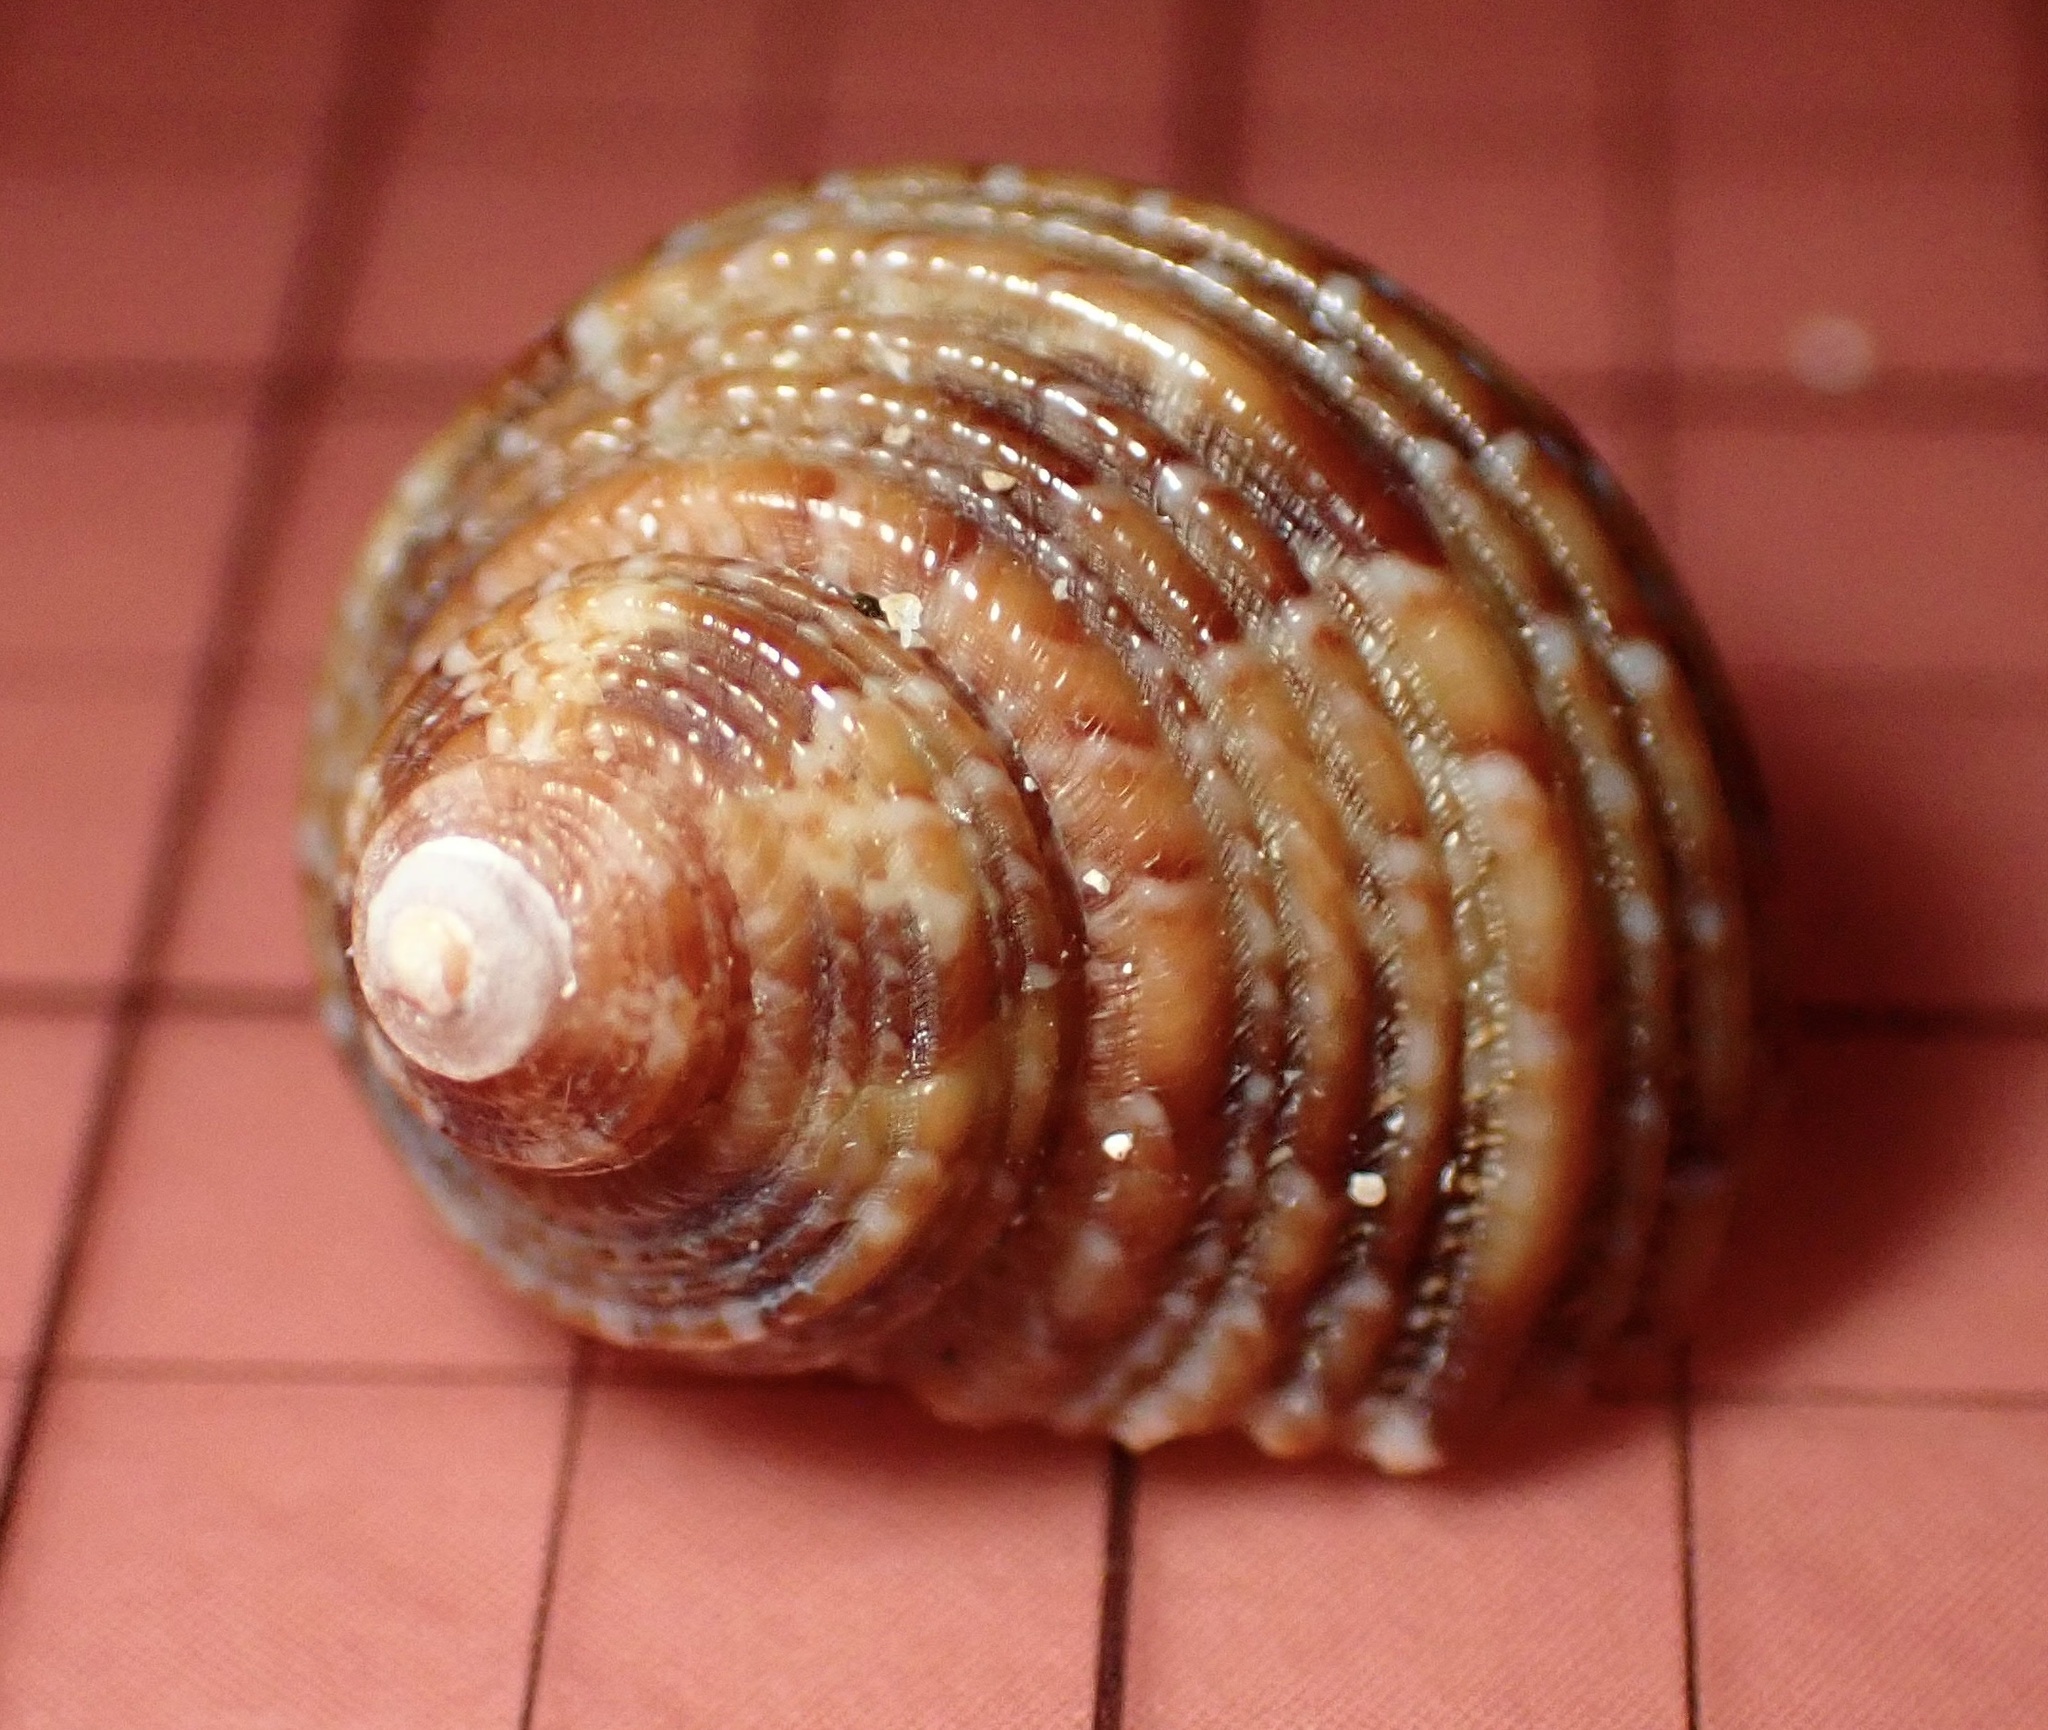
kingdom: Animalia
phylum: Mollusca
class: Gastropoda
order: Trochida
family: Turbinidae
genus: Turbo
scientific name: Turbo sandwicensis
